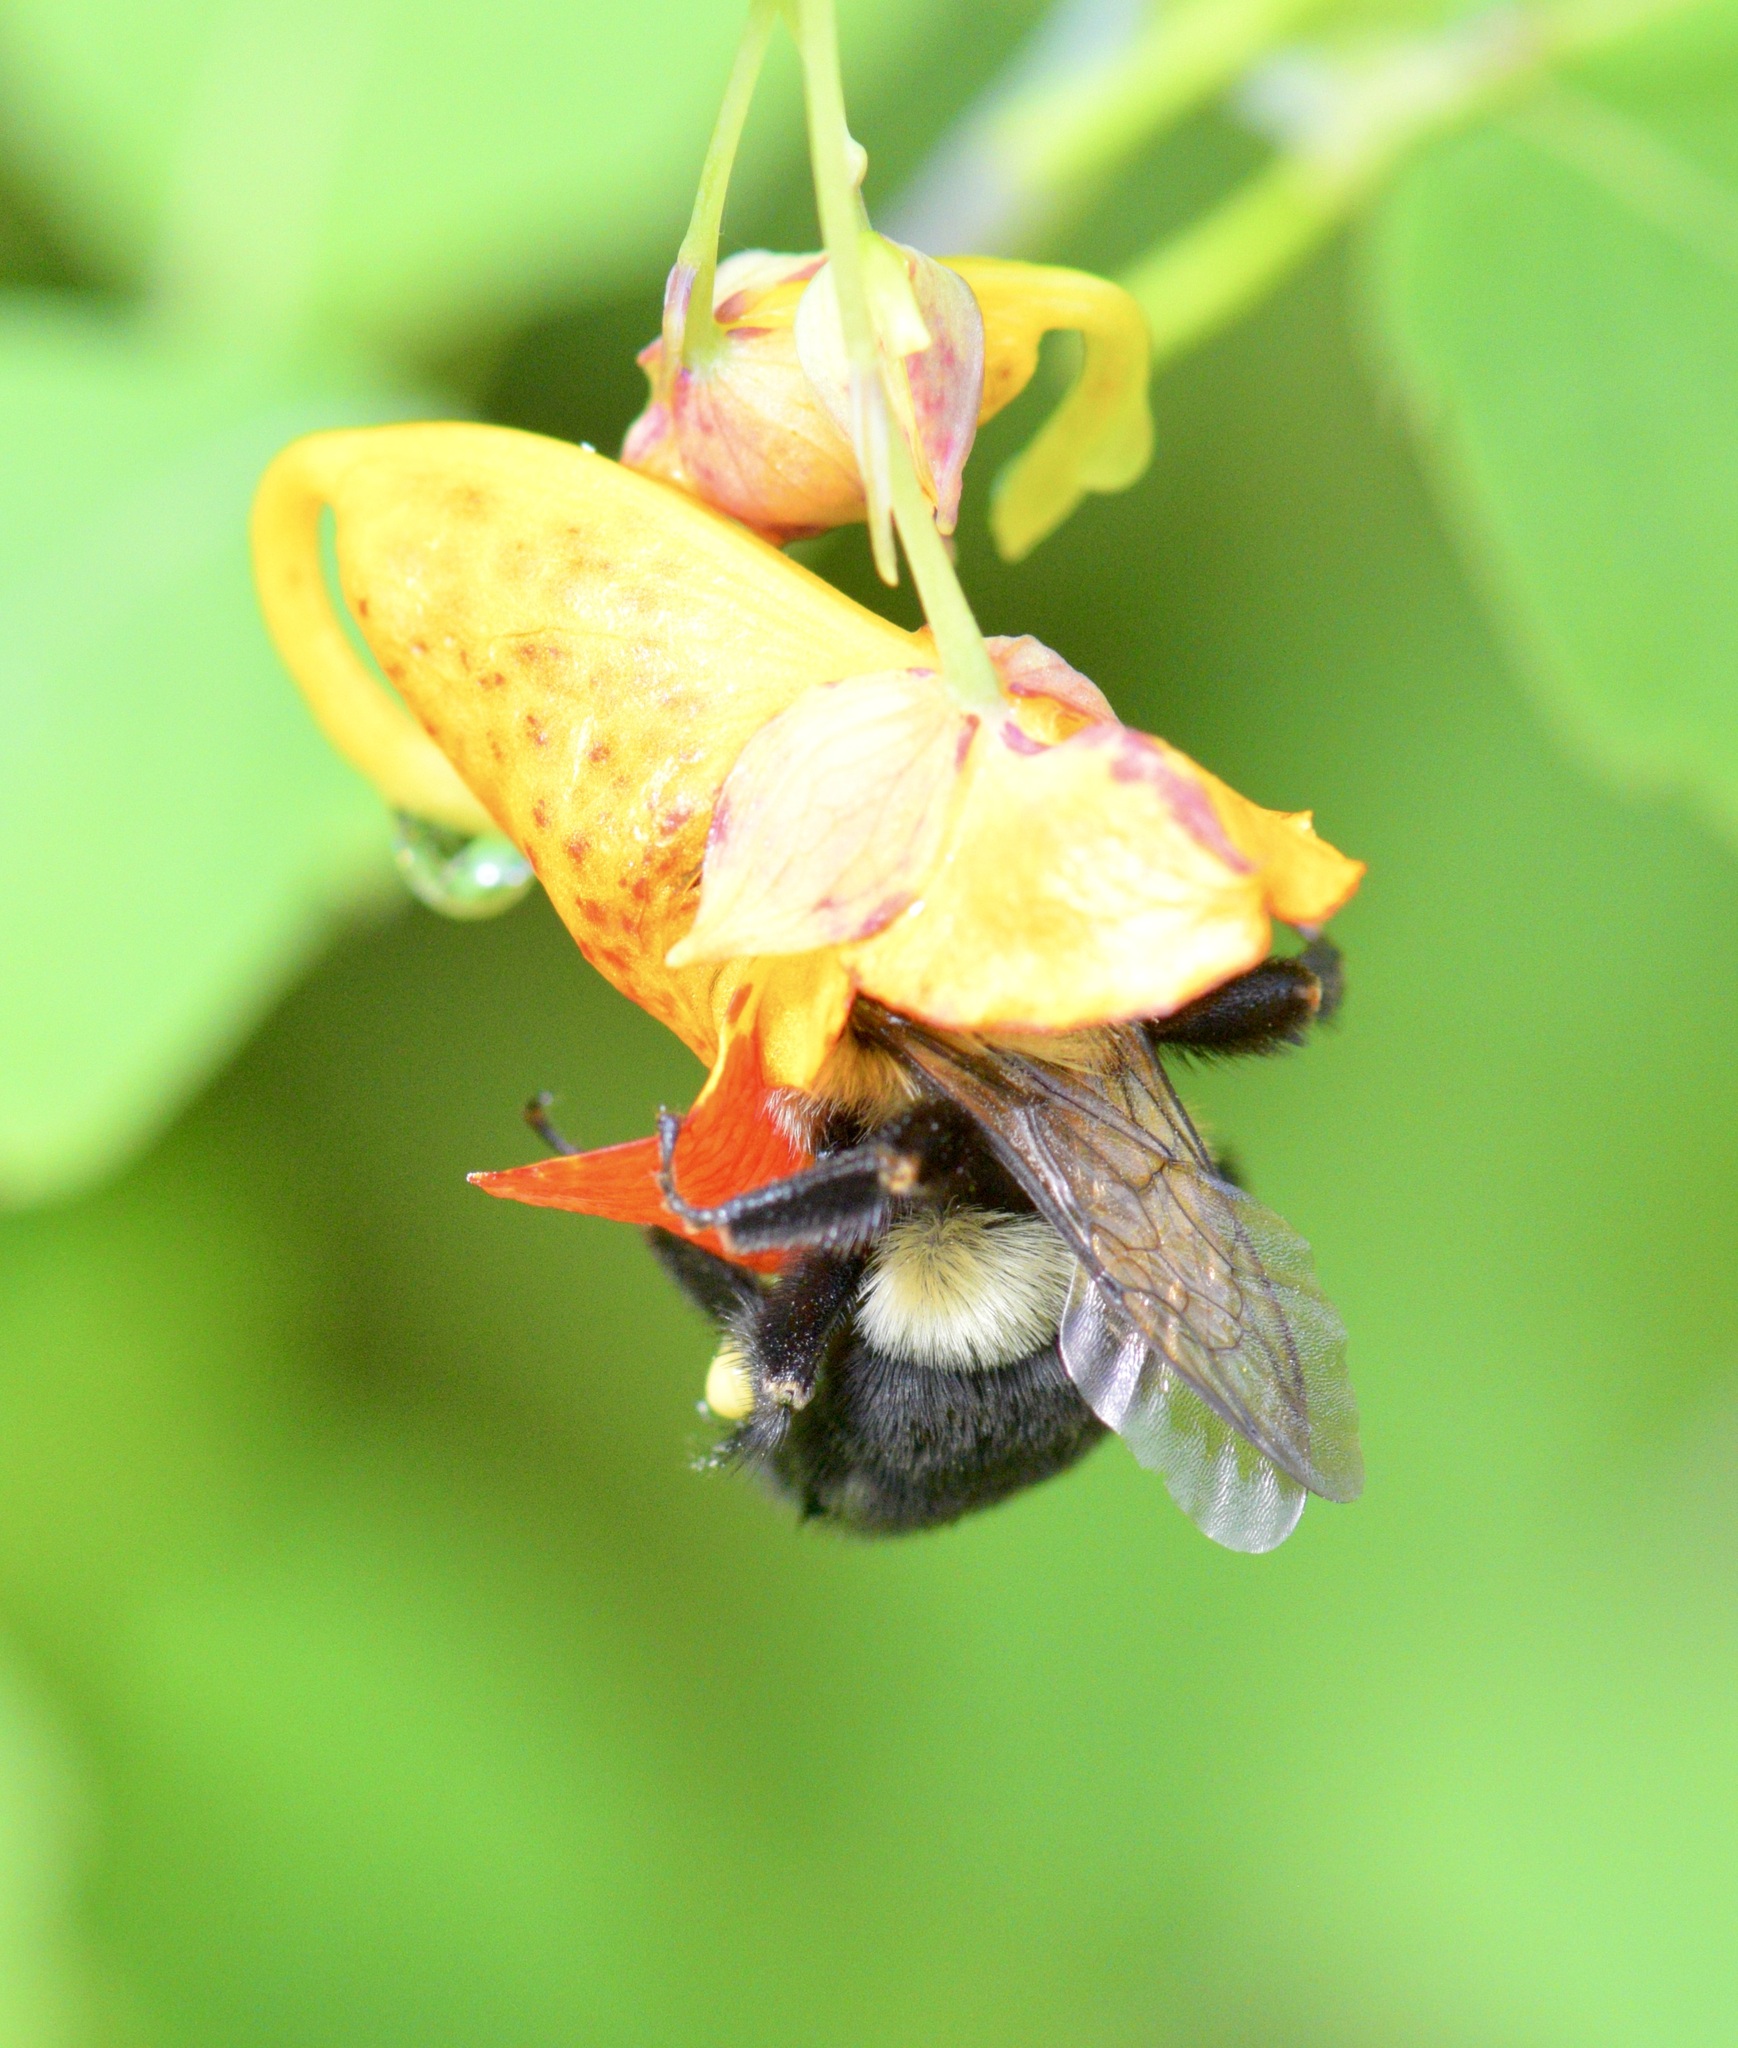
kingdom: Animalia
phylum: Arthropoda
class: Insecta
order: Hymenoptera
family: Apidae
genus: Bombus
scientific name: Bombus impatiens
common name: Common eastern bumble bee
